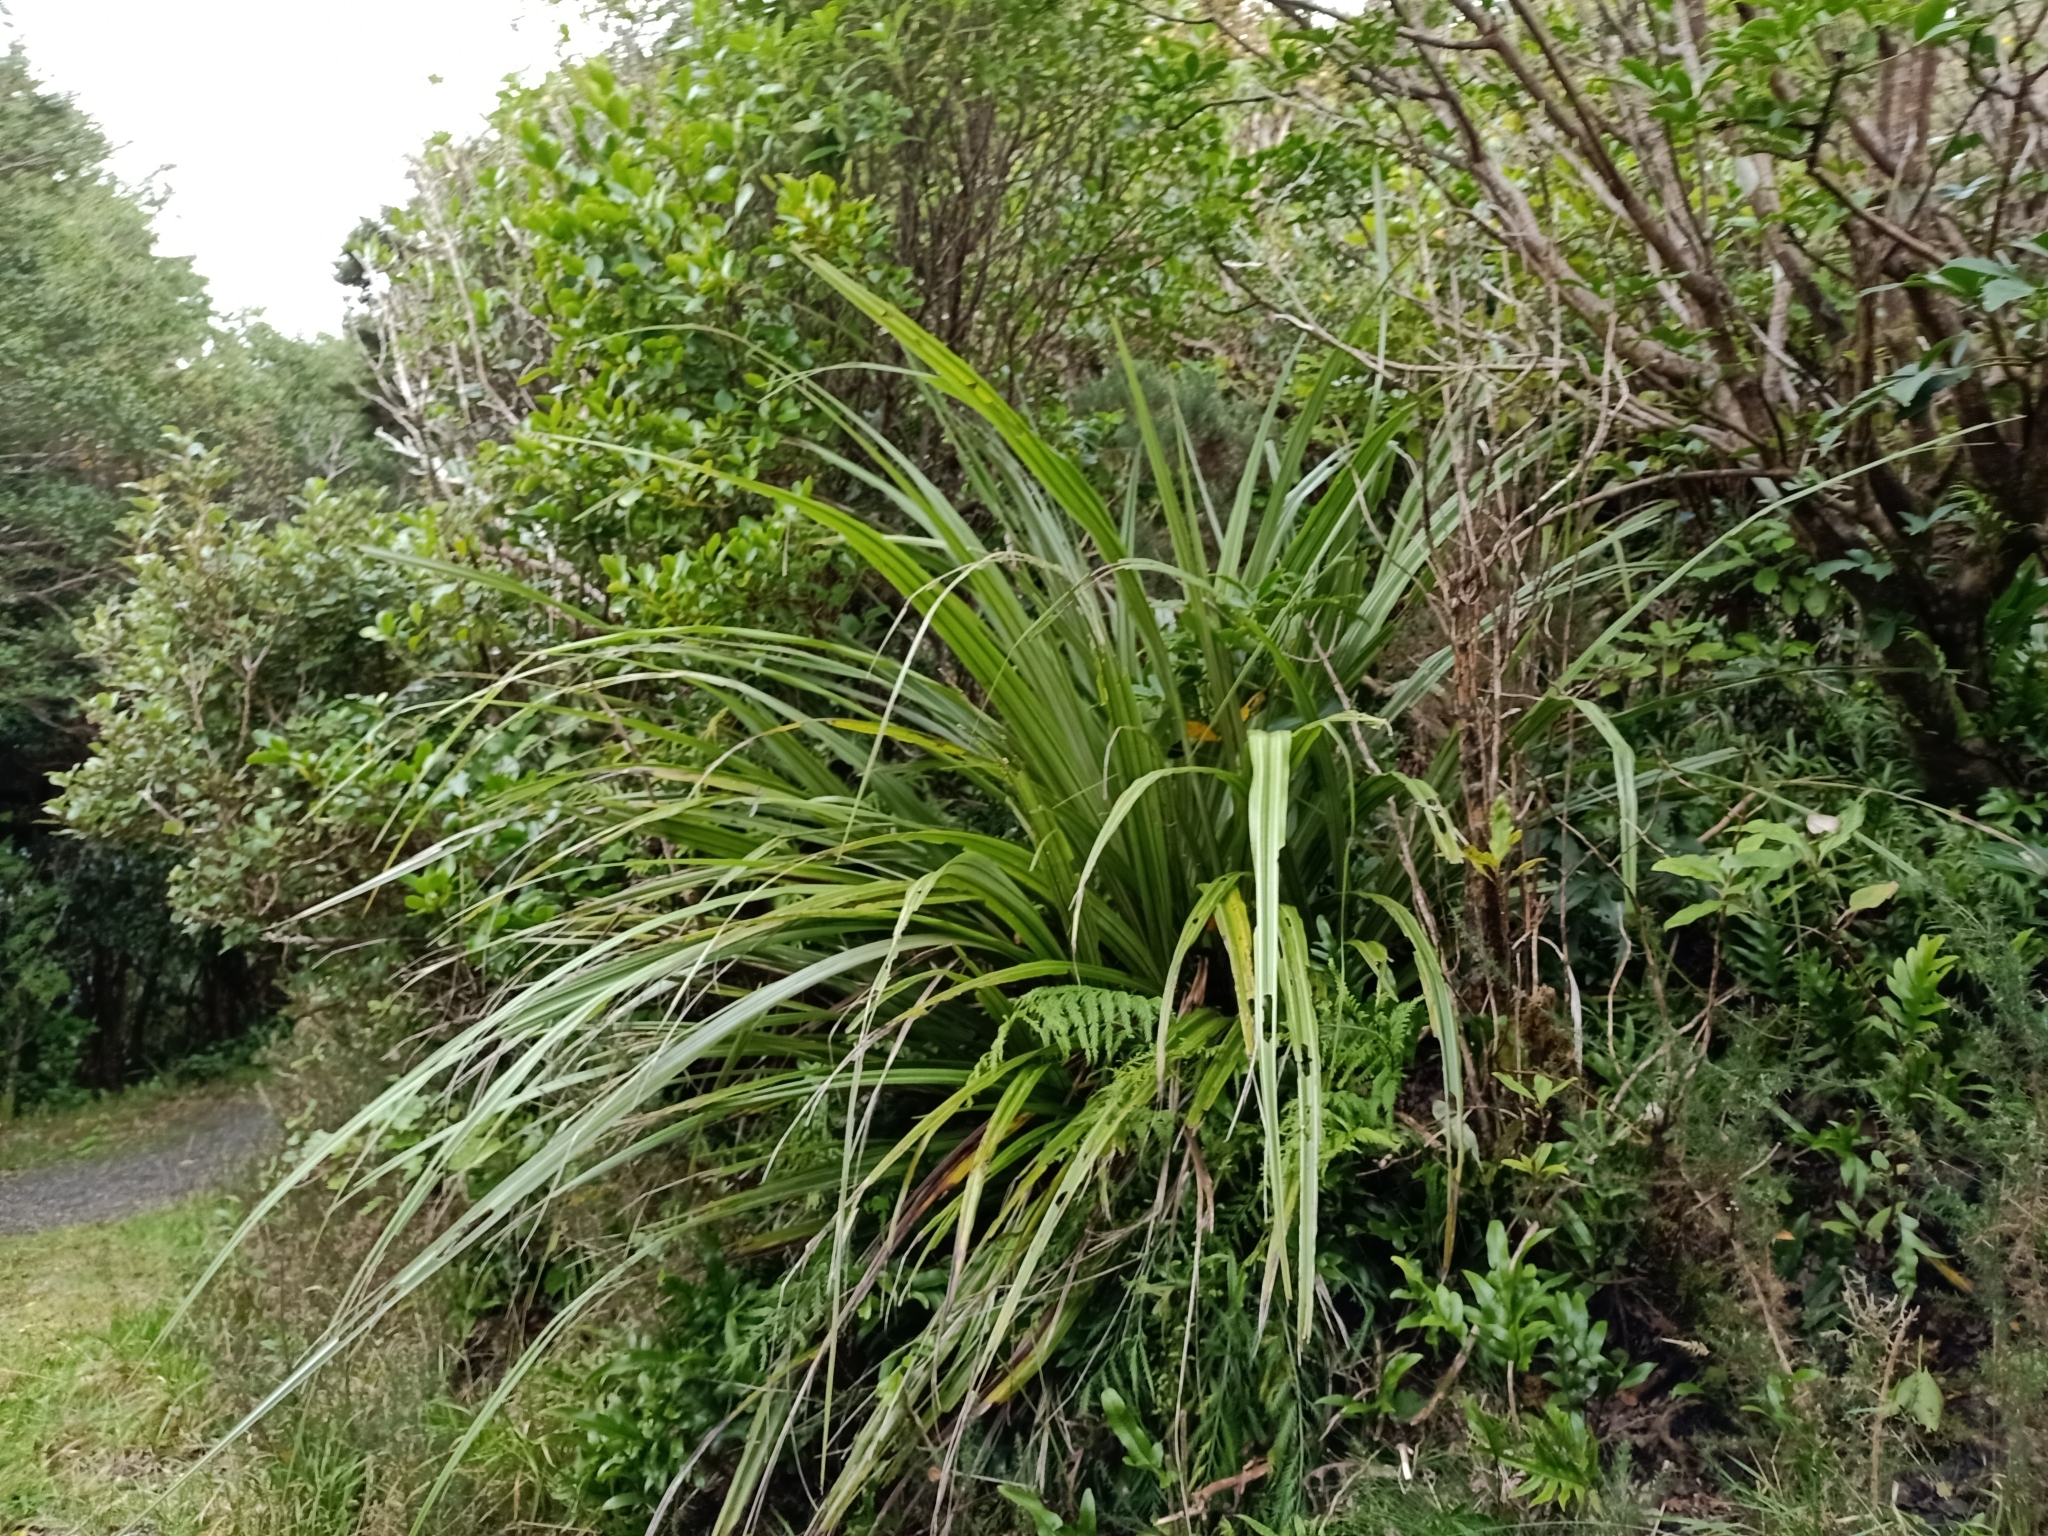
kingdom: Plantae
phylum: Tracheophyta
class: Liliopsida
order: Asparagales
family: Asteliaceae
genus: Astelia
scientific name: Astelia fragrans
